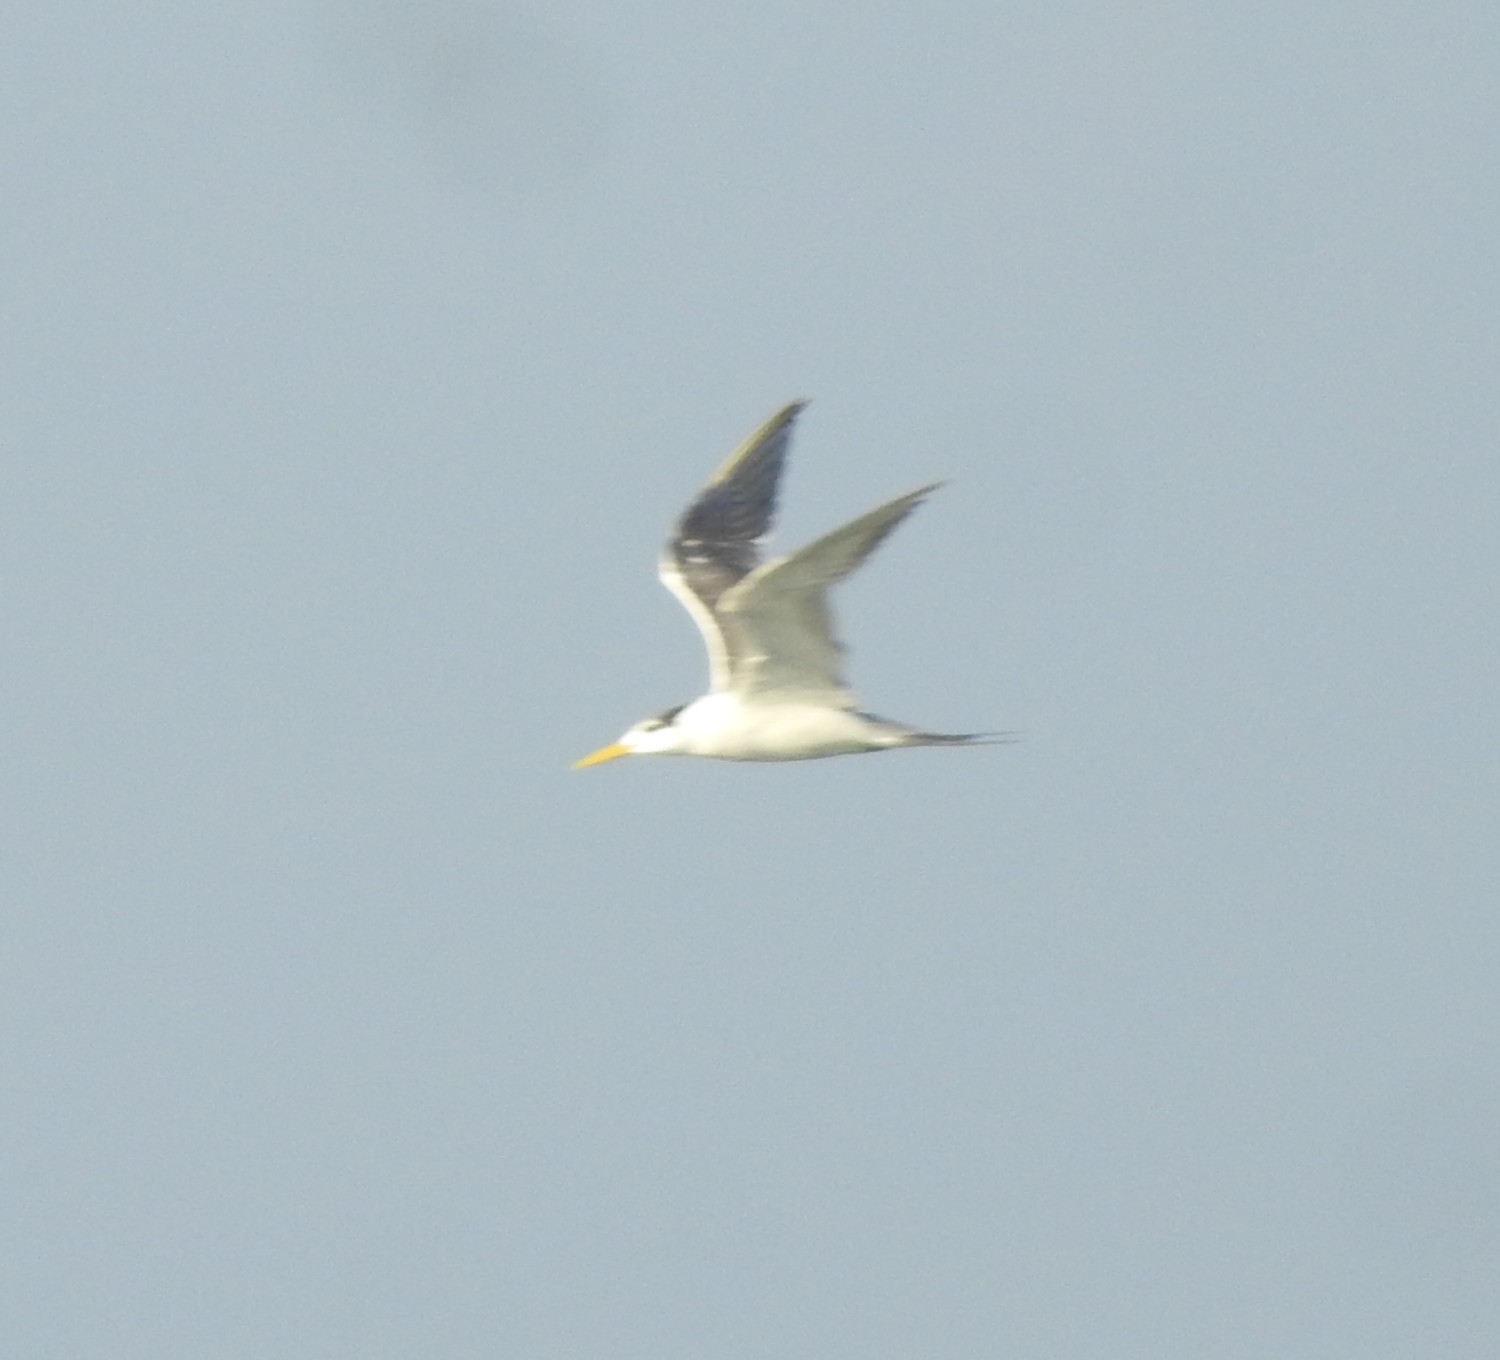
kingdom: Animalia
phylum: Chordata
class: Aves
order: Charadriiformes
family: Laridae
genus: Thalasseus
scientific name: Thalasseus bergii
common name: Greater crested tern
